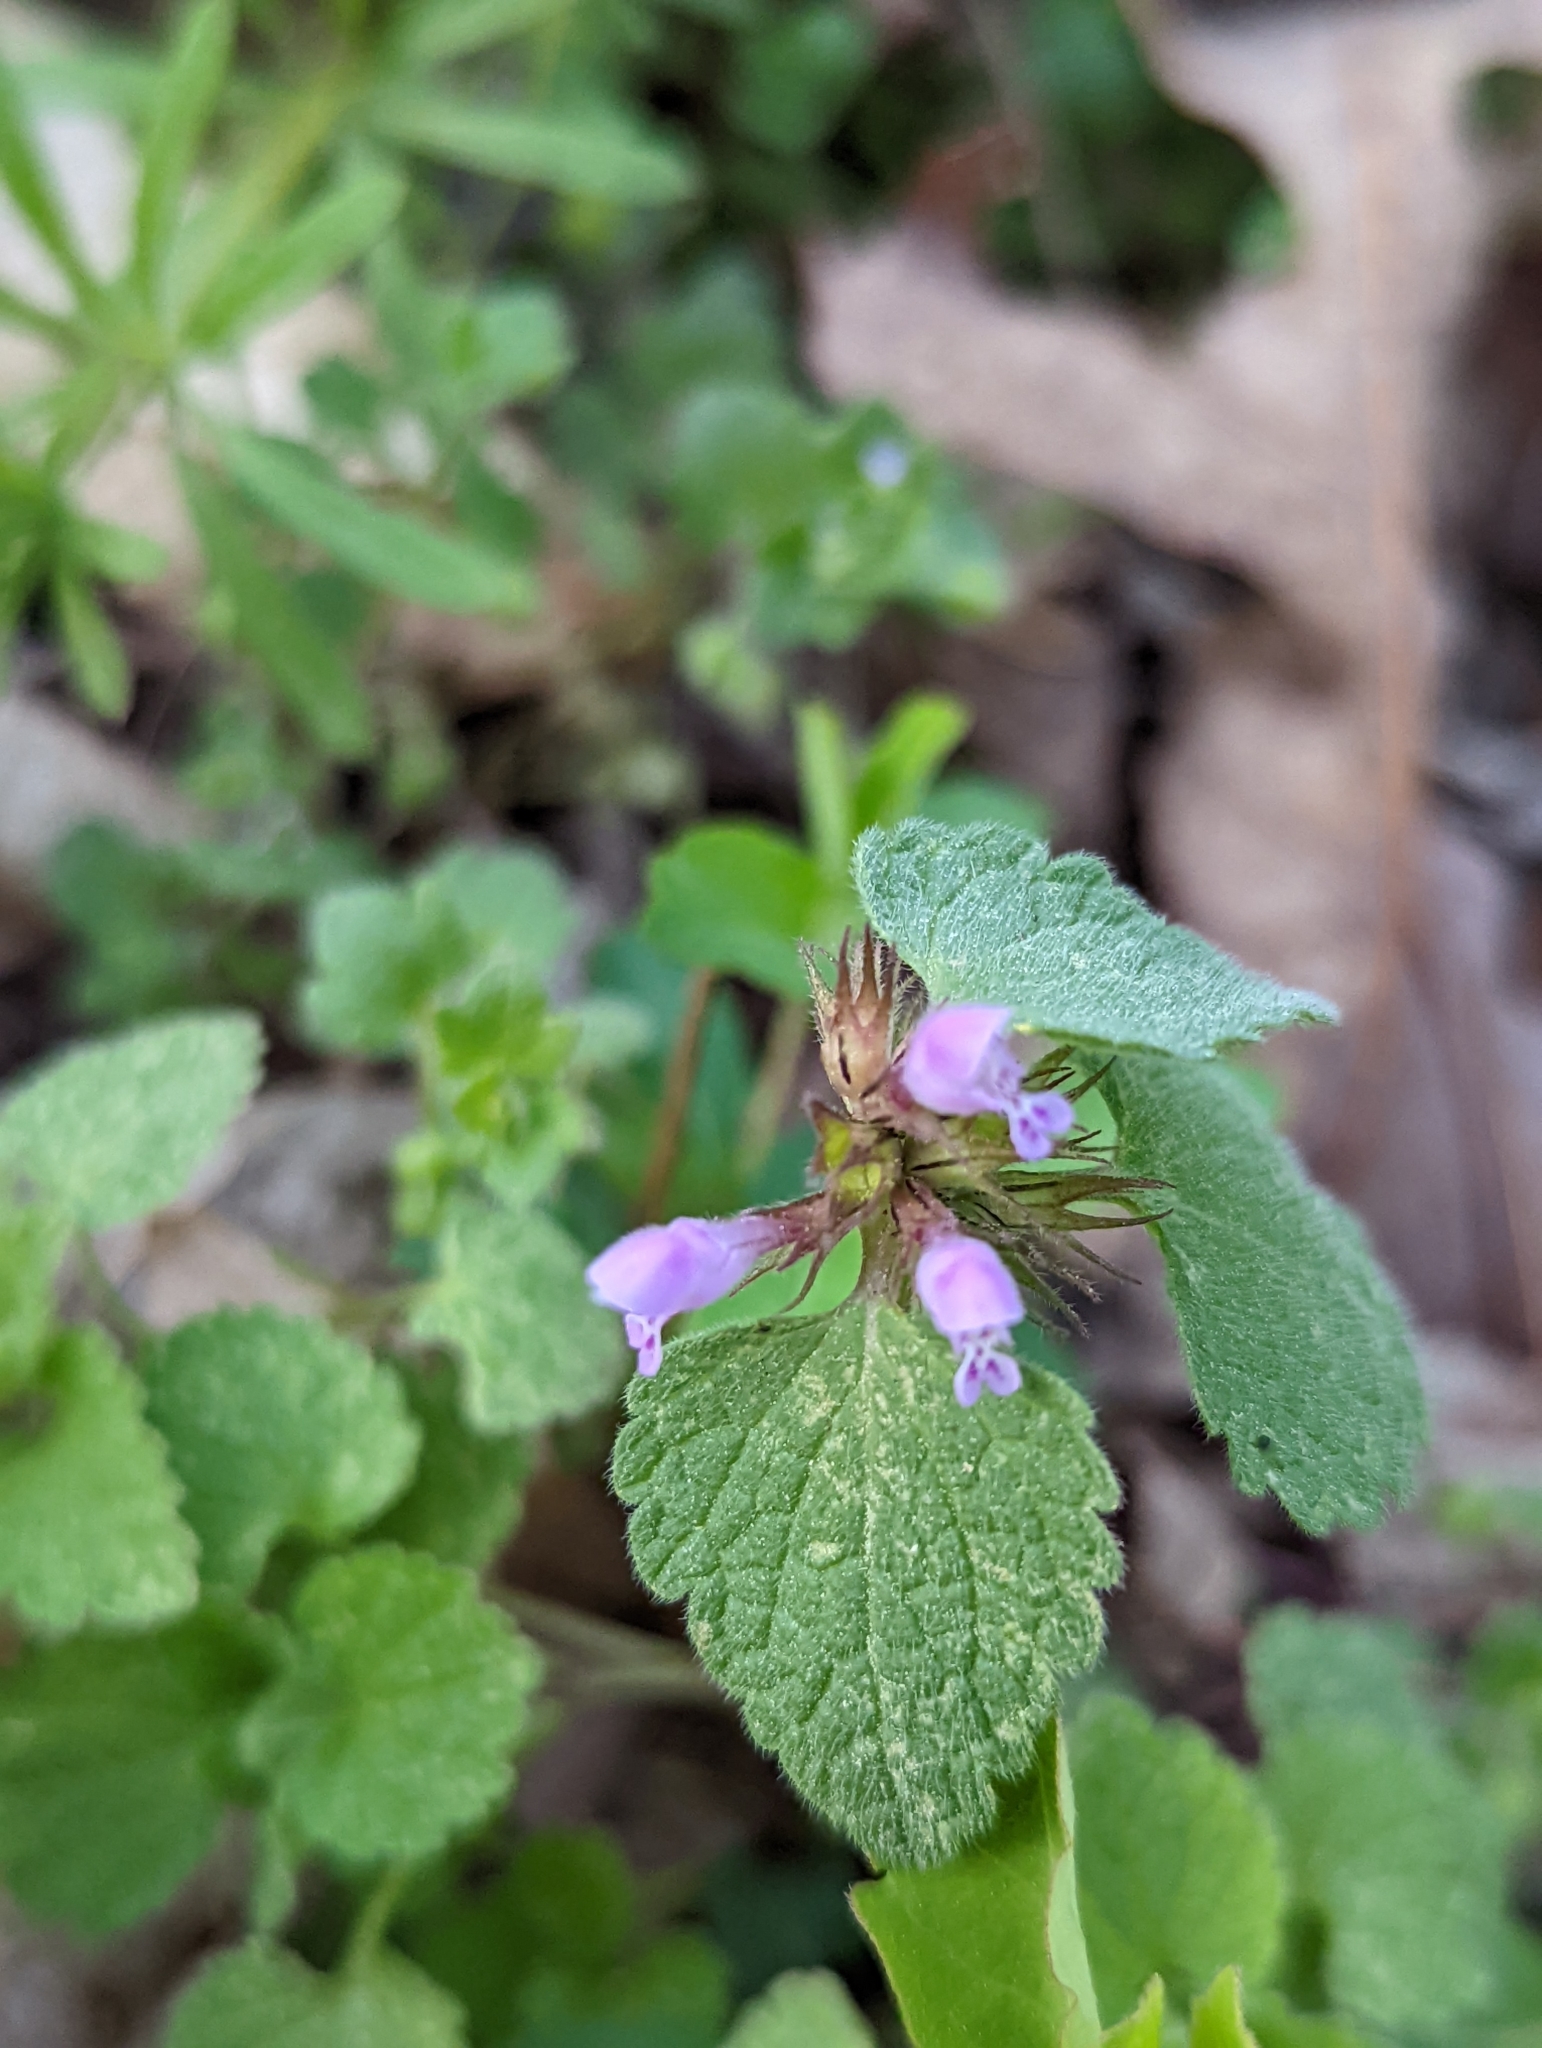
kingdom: Plantae
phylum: Tracheophyta
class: Magnoliopsida
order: Lamiales
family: Lamiaceae
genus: Lamium
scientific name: Lamium purpureum
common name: Red dead-nettle
